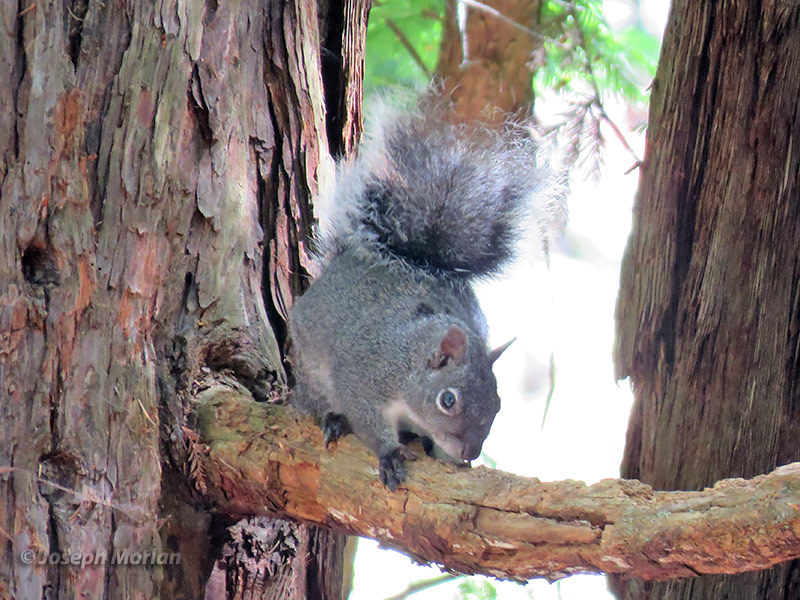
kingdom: Animalia
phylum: Chordata
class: Mammalia
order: Rodentia
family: Sciuridae
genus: Sciurus
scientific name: Sciurus griseus
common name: Western gray squirrel
